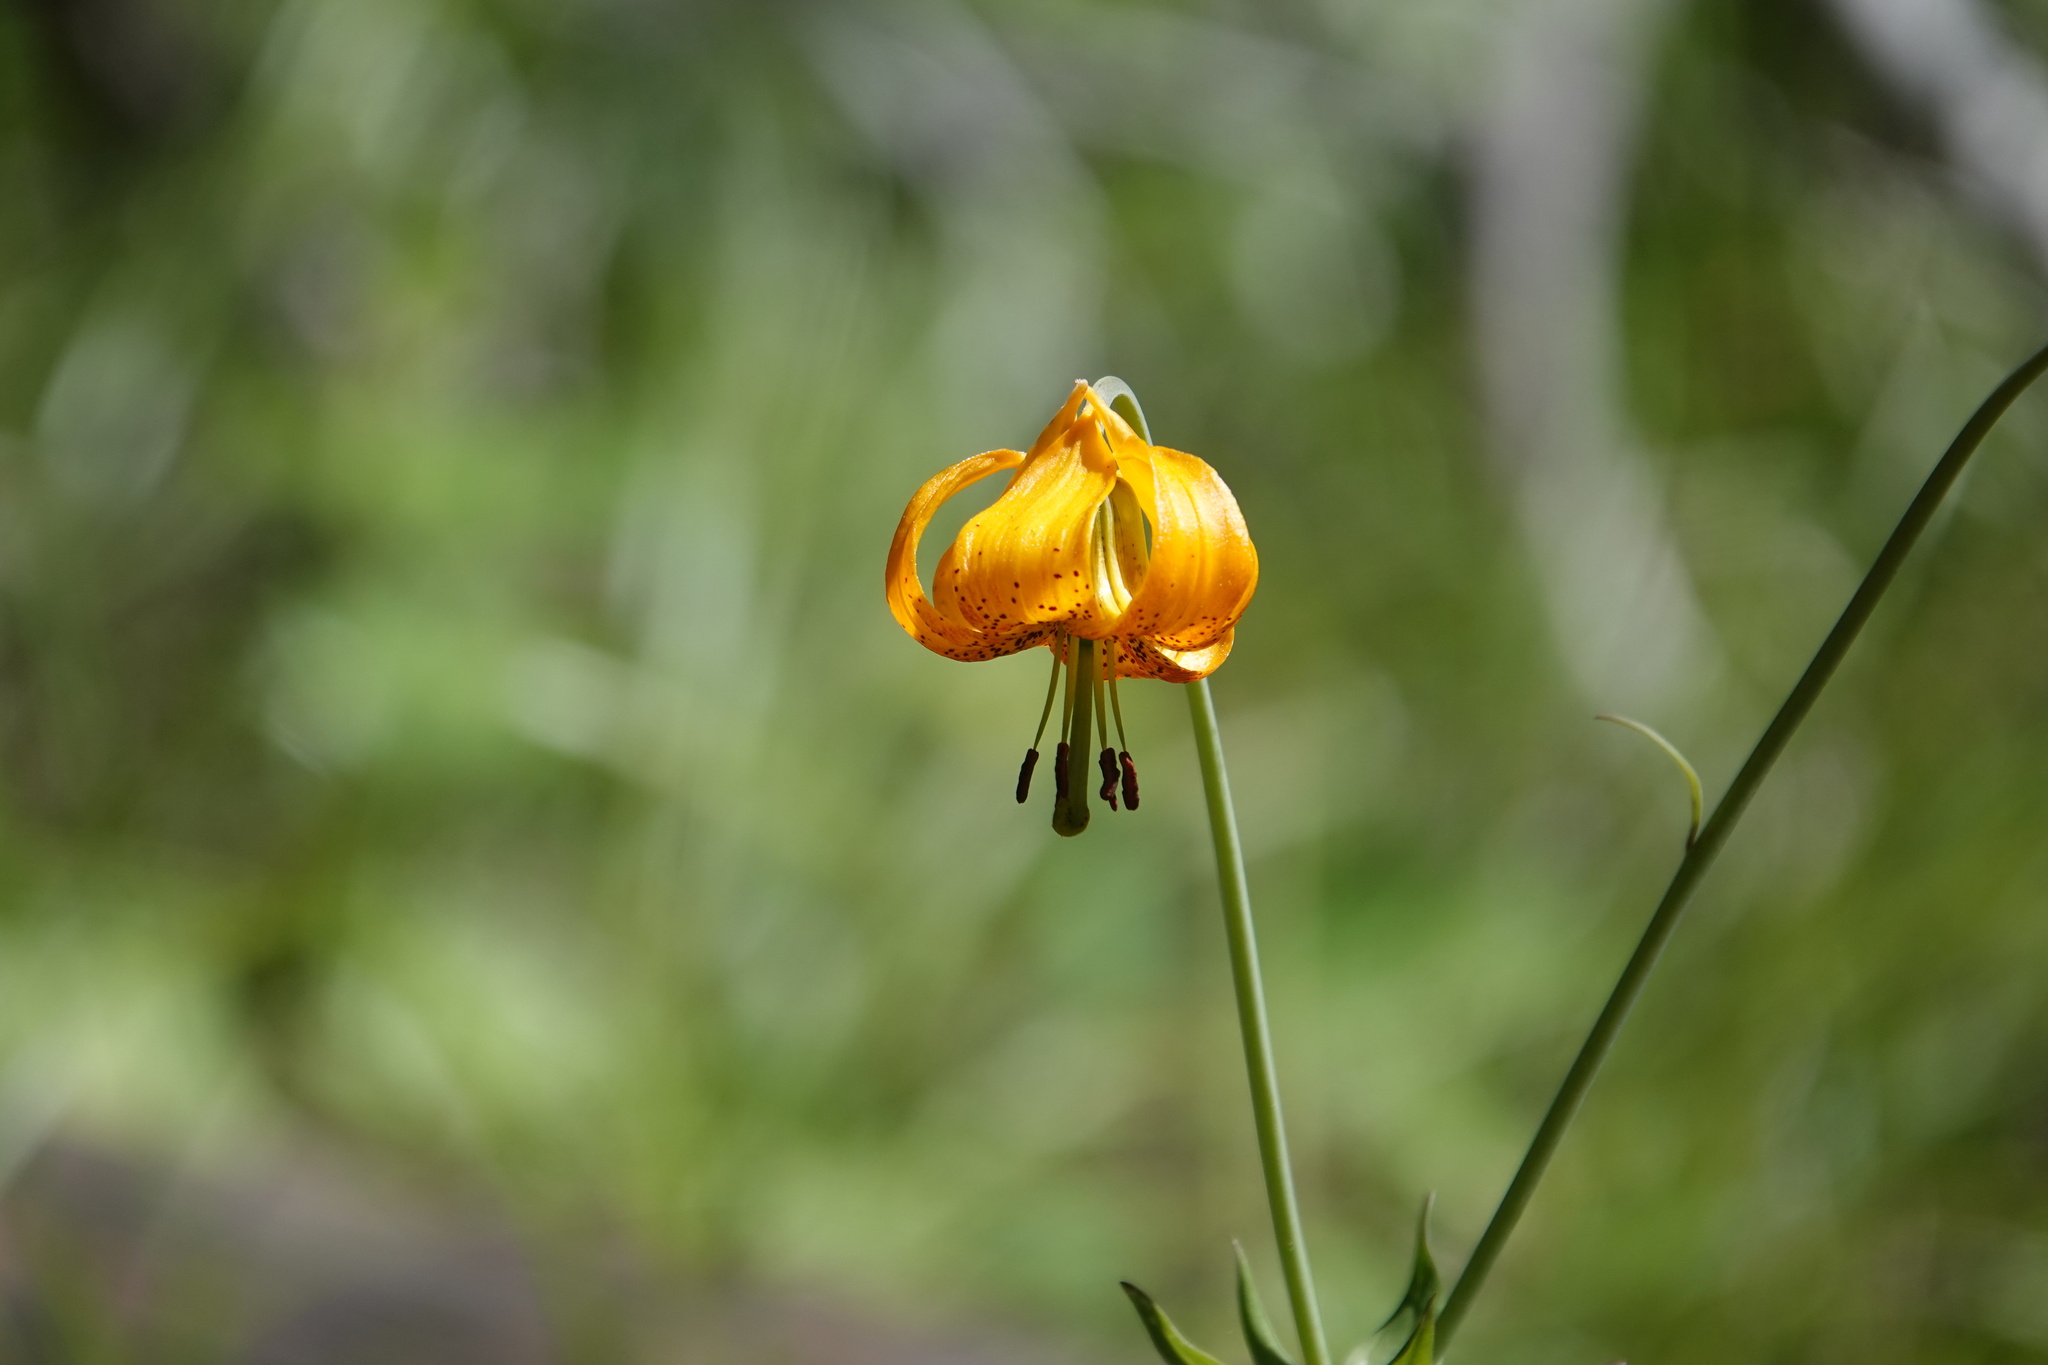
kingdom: Plantae
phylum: Tracheophyta
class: Liliopsida
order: Liliales
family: Liliaceae
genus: Lilium
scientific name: Lilium columbianum
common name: Columbia lily
